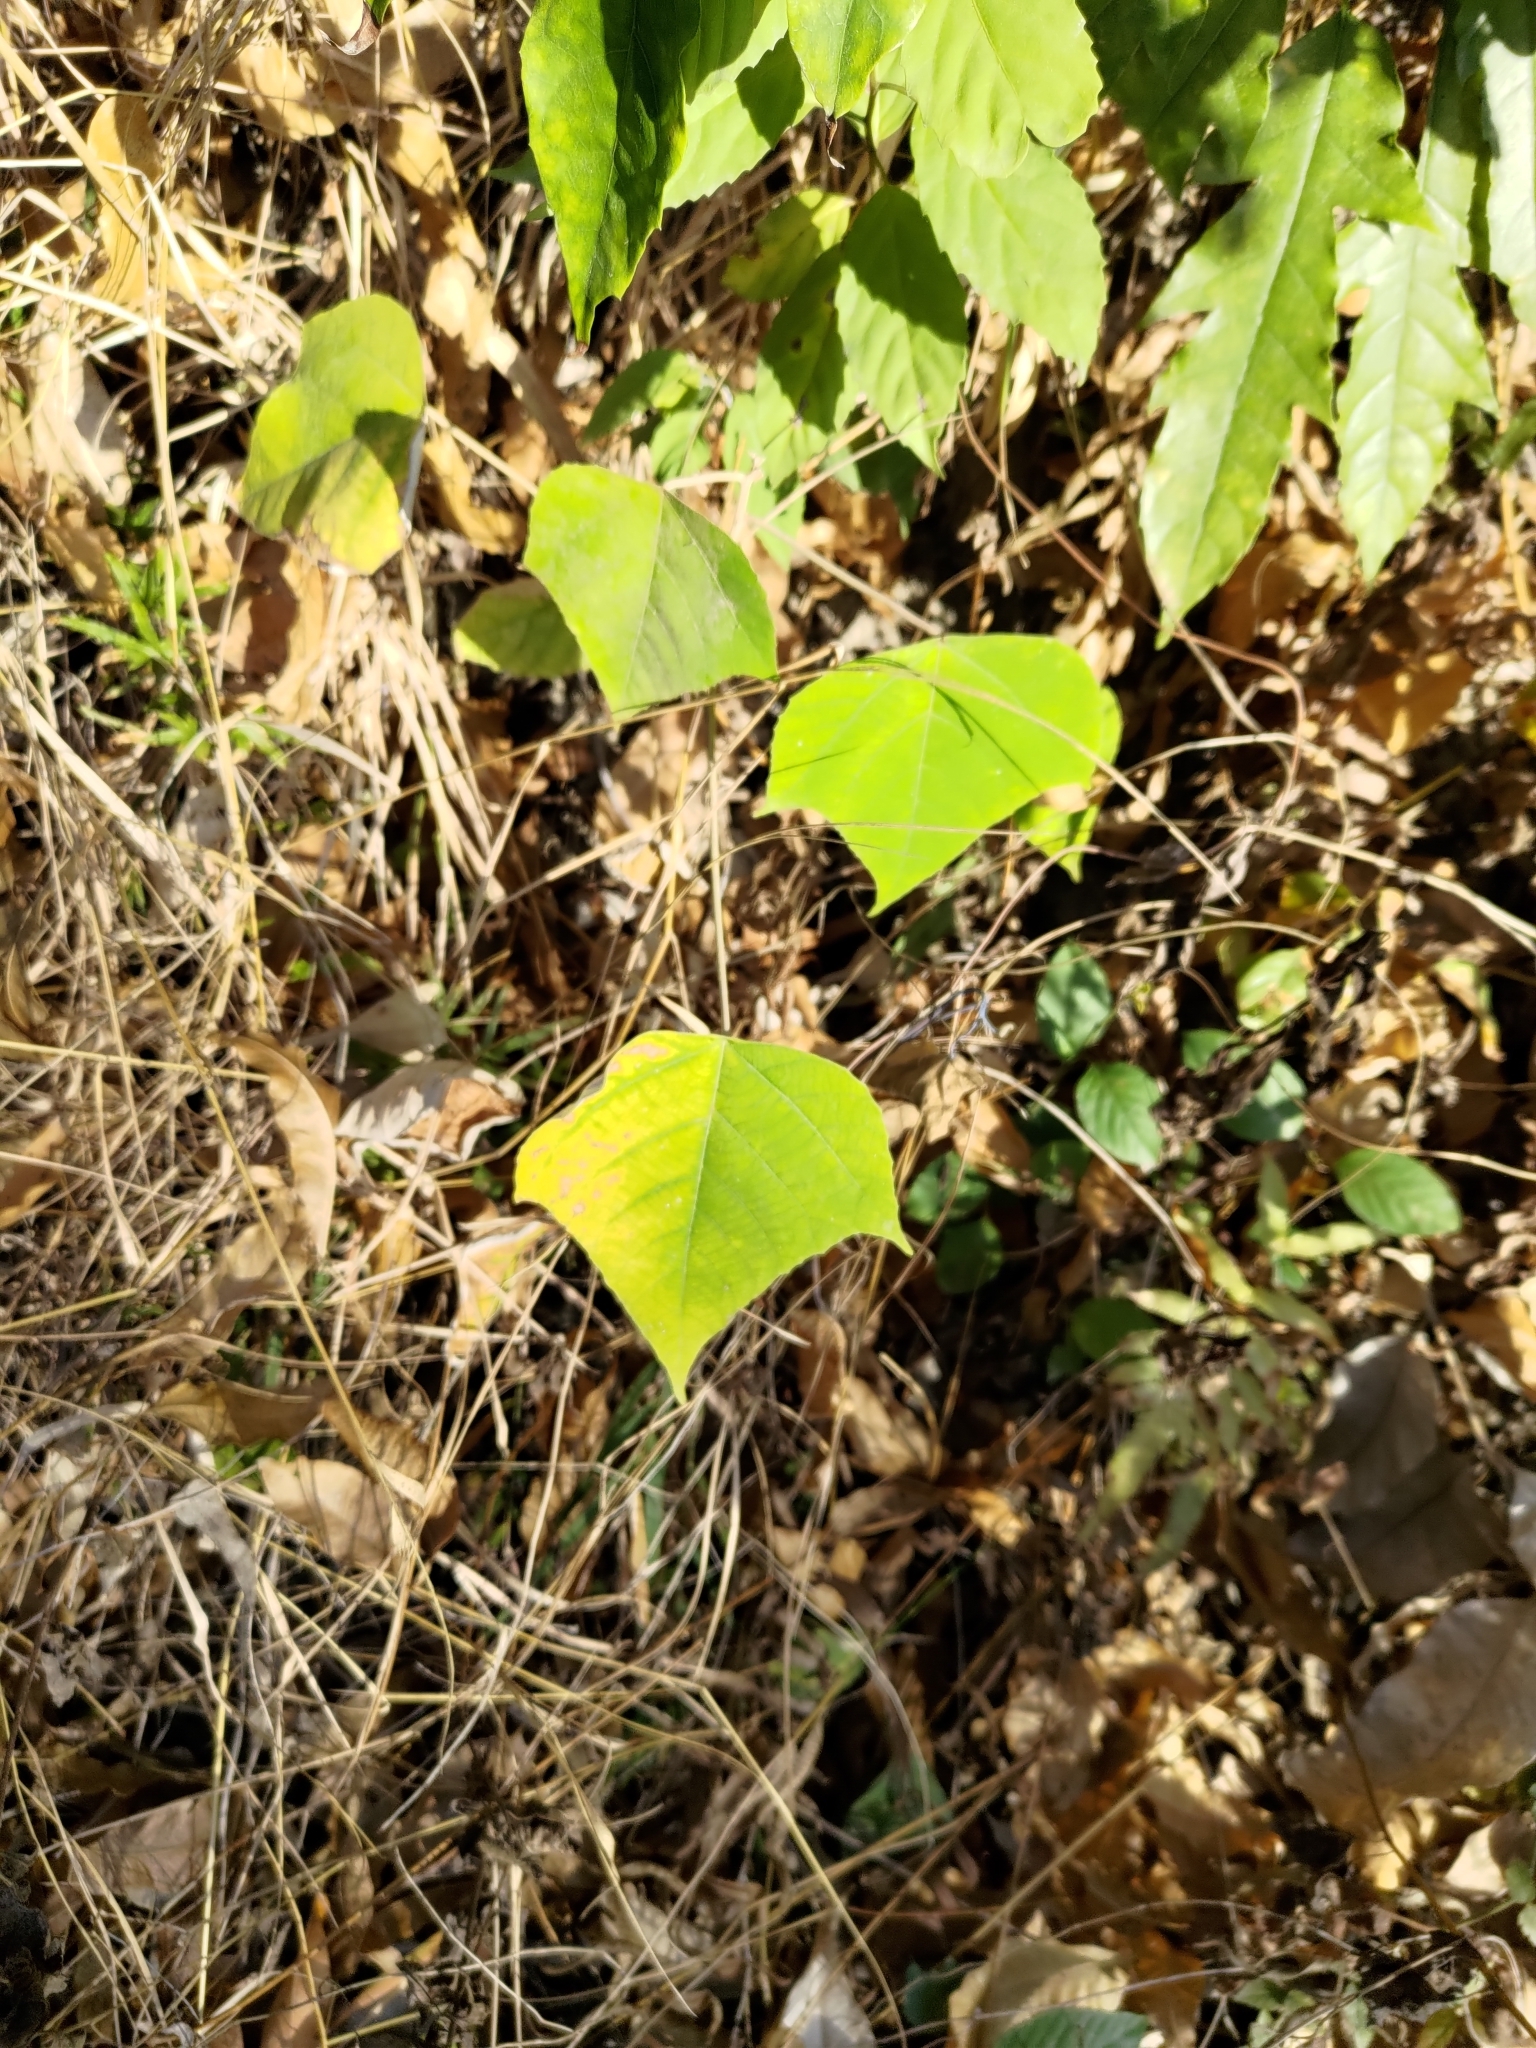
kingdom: Plantae
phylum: Tracheophyta
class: Magnoliopsida
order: Malpighiales
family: Euphorbiaceae
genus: Mallotus
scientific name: Mallotus paniculatus
